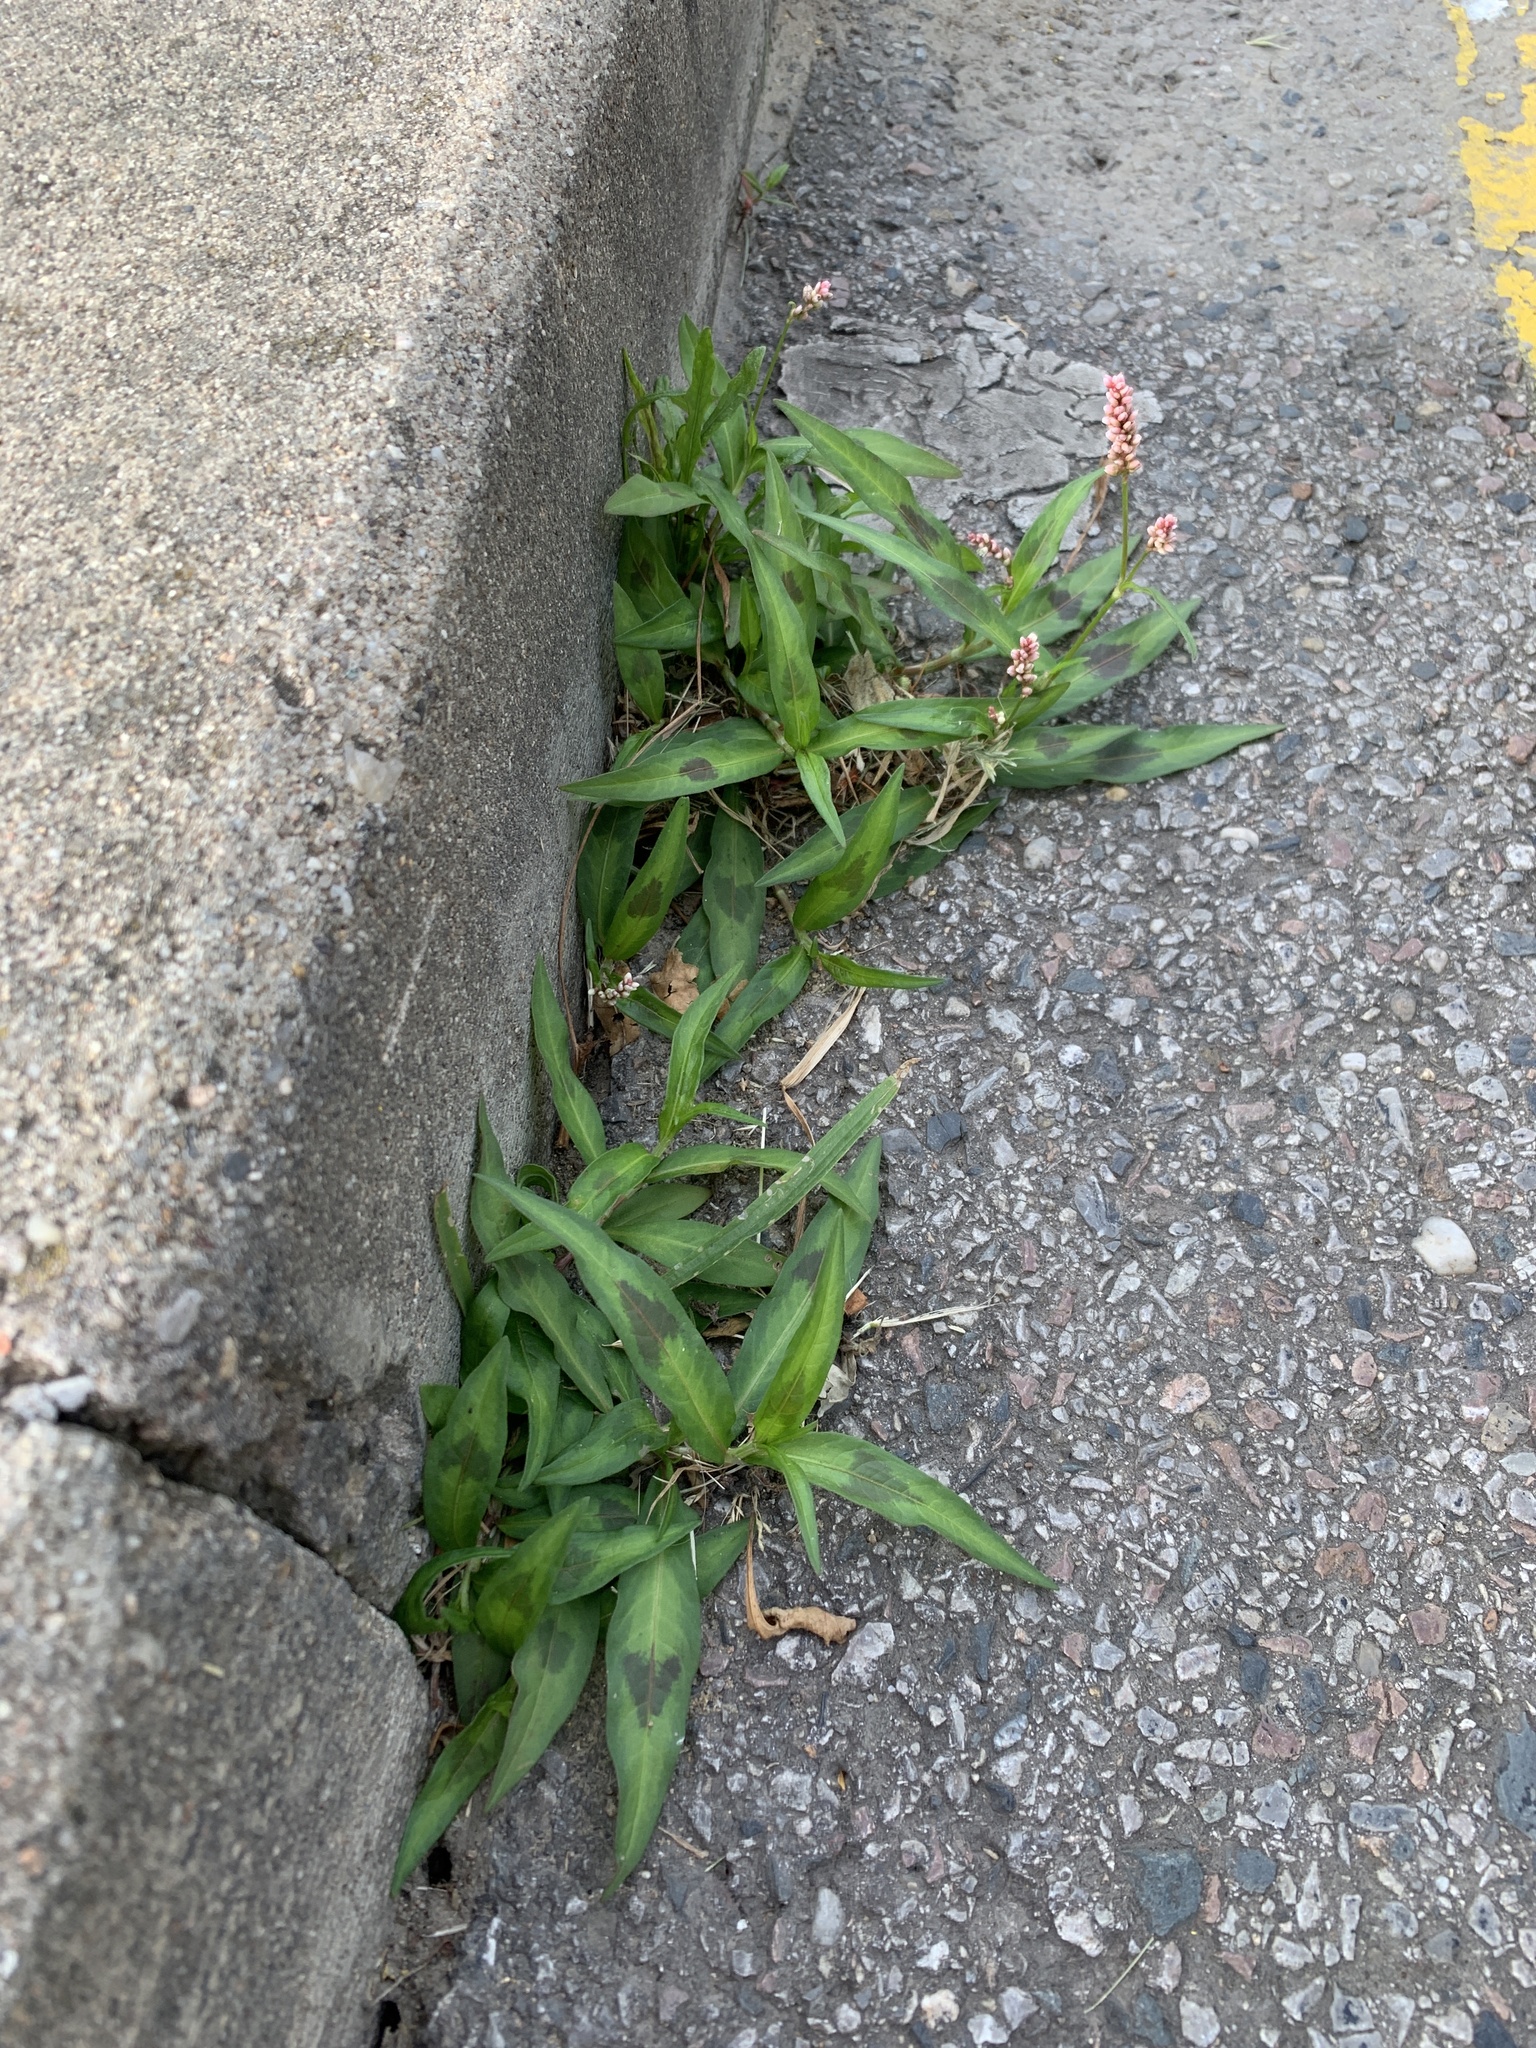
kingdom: Plantae
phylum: Tracheophyta
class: Magnoliopsida
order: Caryophyllales
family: Polygonaceae
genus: Persicaria
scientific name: Persicaria maculosa
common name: Redshank
